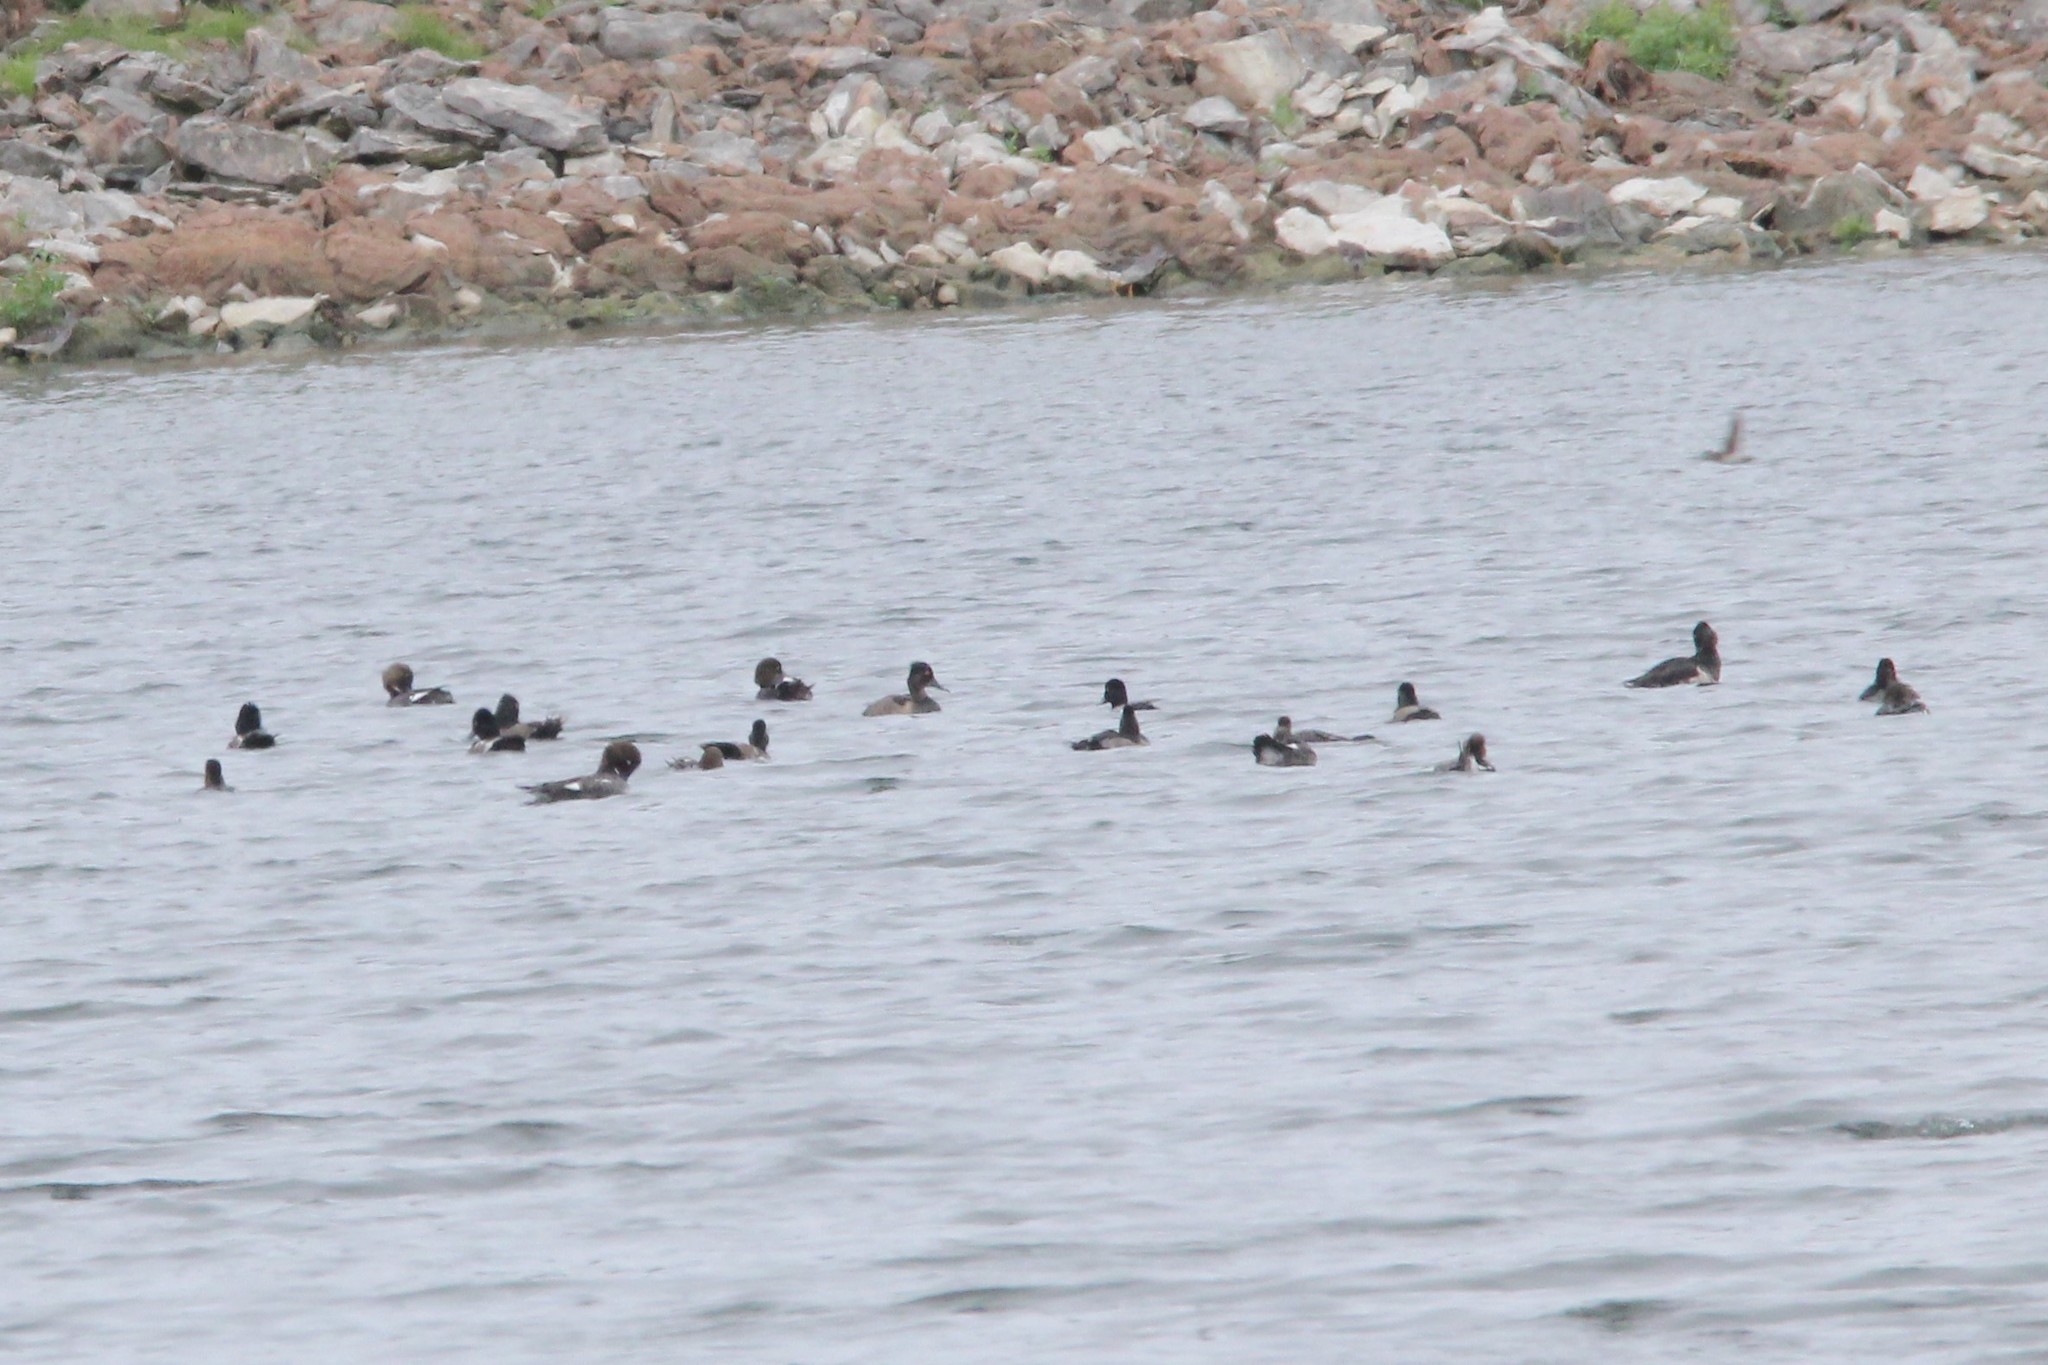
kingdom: Animalia
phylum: Chordata
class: Aves
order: Anseriformes
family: Anatidae
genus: Aythya
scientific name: Aythya collaris
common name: Ring-necked duck
